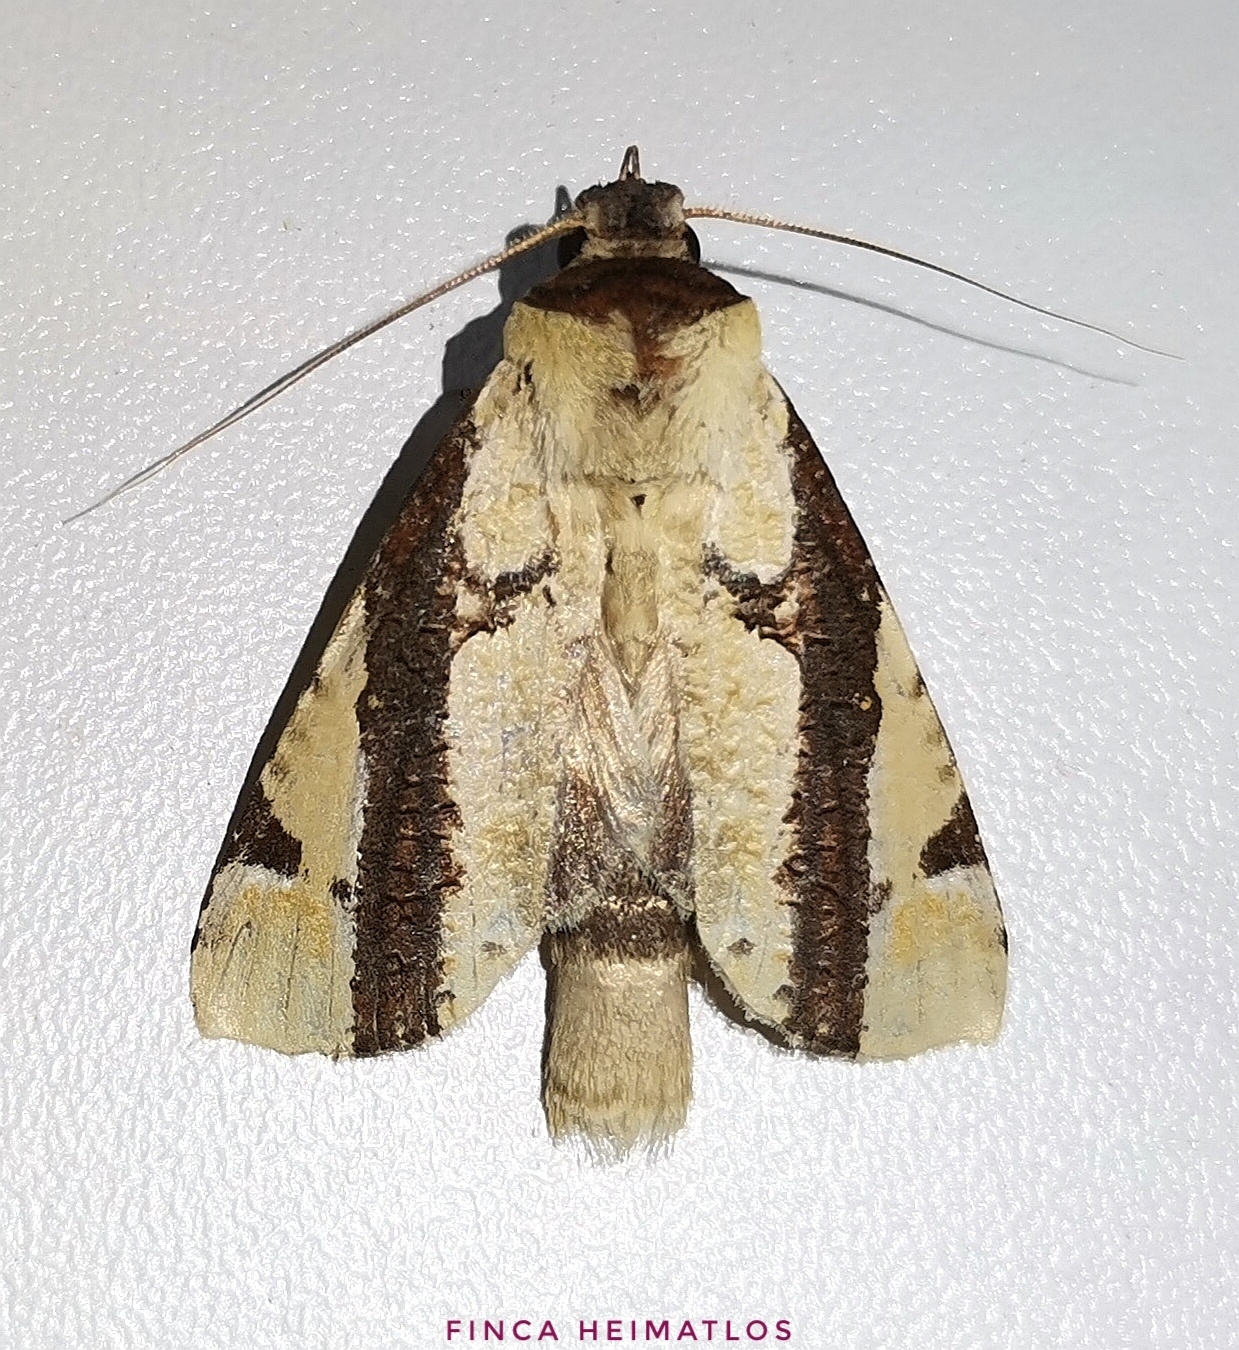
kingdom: Animalia
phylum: Arthropoda
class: Insecta
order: Lepidoptera
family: Notodontidae
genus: Pseudantiora
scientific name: Pseudantiora contingata
